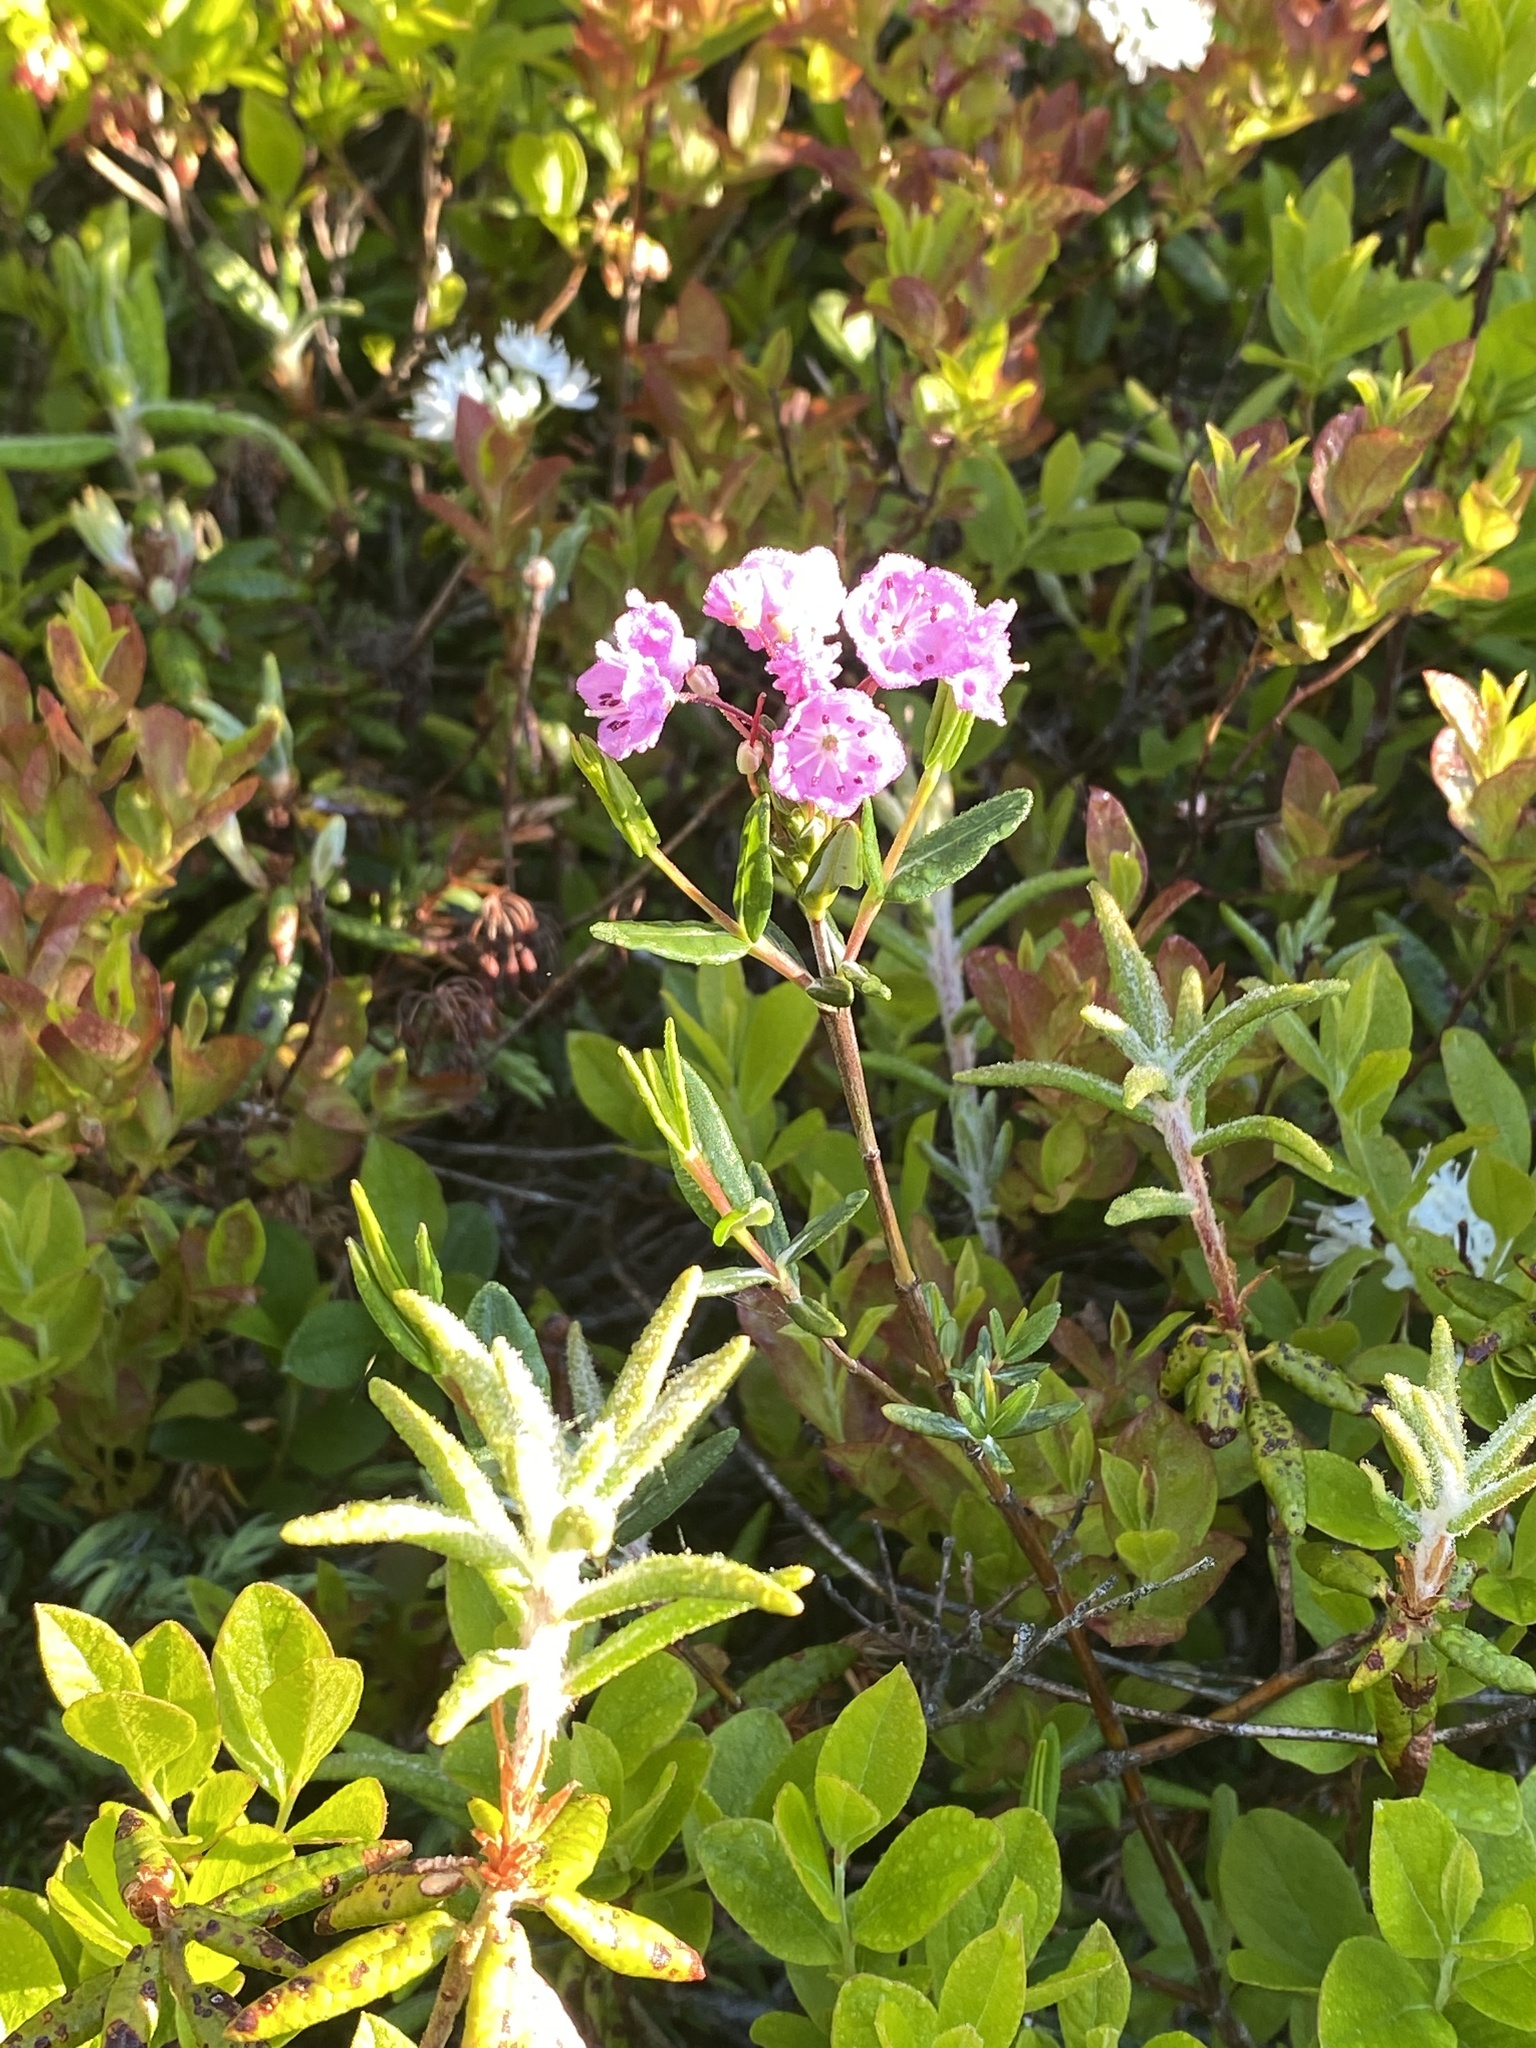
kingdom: Plantae
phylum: Tracheophyta
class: Magnoliopsida
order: Ericales
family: Ericaceae
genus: Kalmia
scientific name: Kalmia polifolia
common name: Bog-laurel
